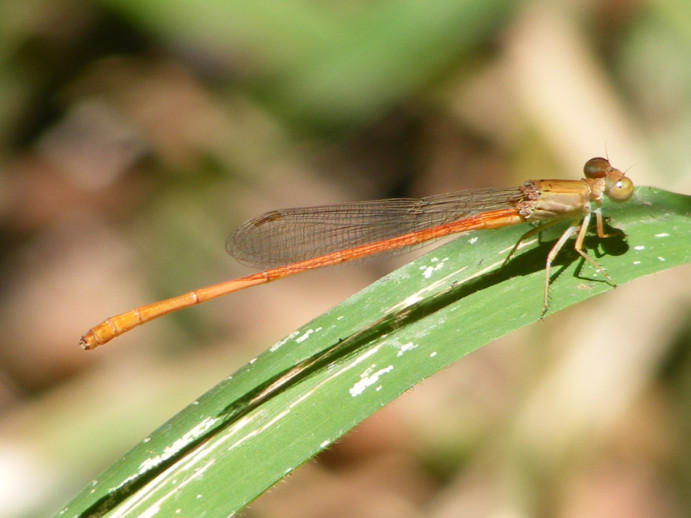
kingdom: Animalia
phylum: Arthropoda
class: Insecta
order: Odonata
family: Coenagrionidae
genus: Ceriagrion
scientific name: Ceriagrion glabrum
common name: Common pond damsel
